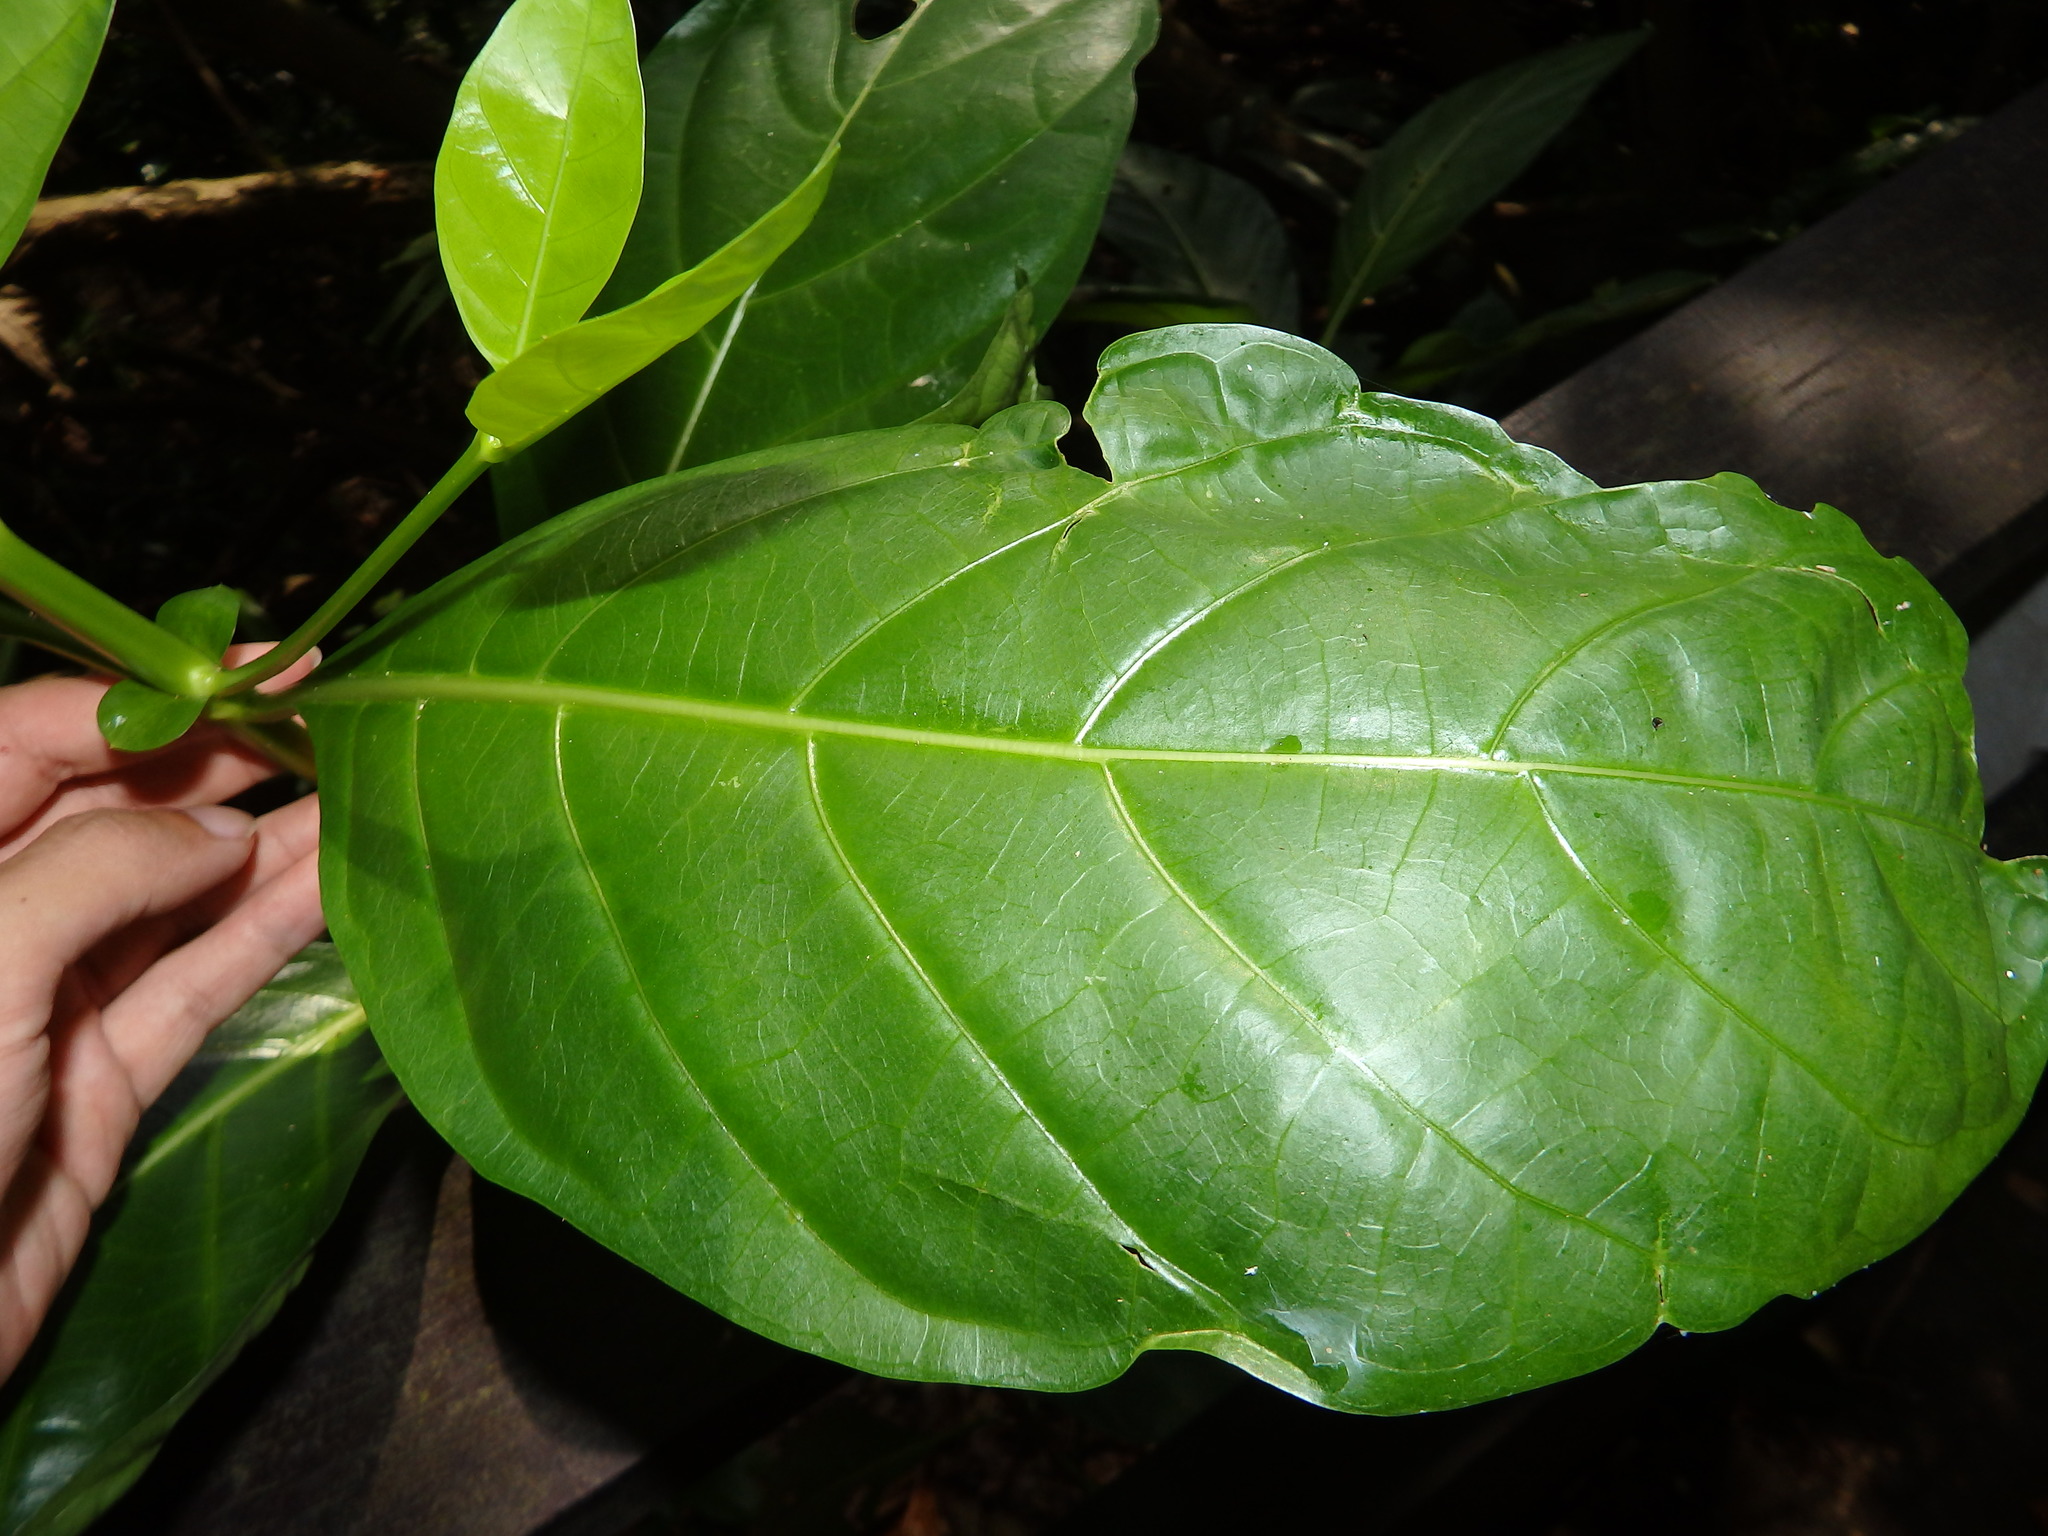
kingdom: Plantae
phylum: Tracheophyta
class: Magnoliopsida
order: Gentianales
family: Rubiaceae
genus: Mussaendopsis
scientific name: Mussaendopsis beccariana
